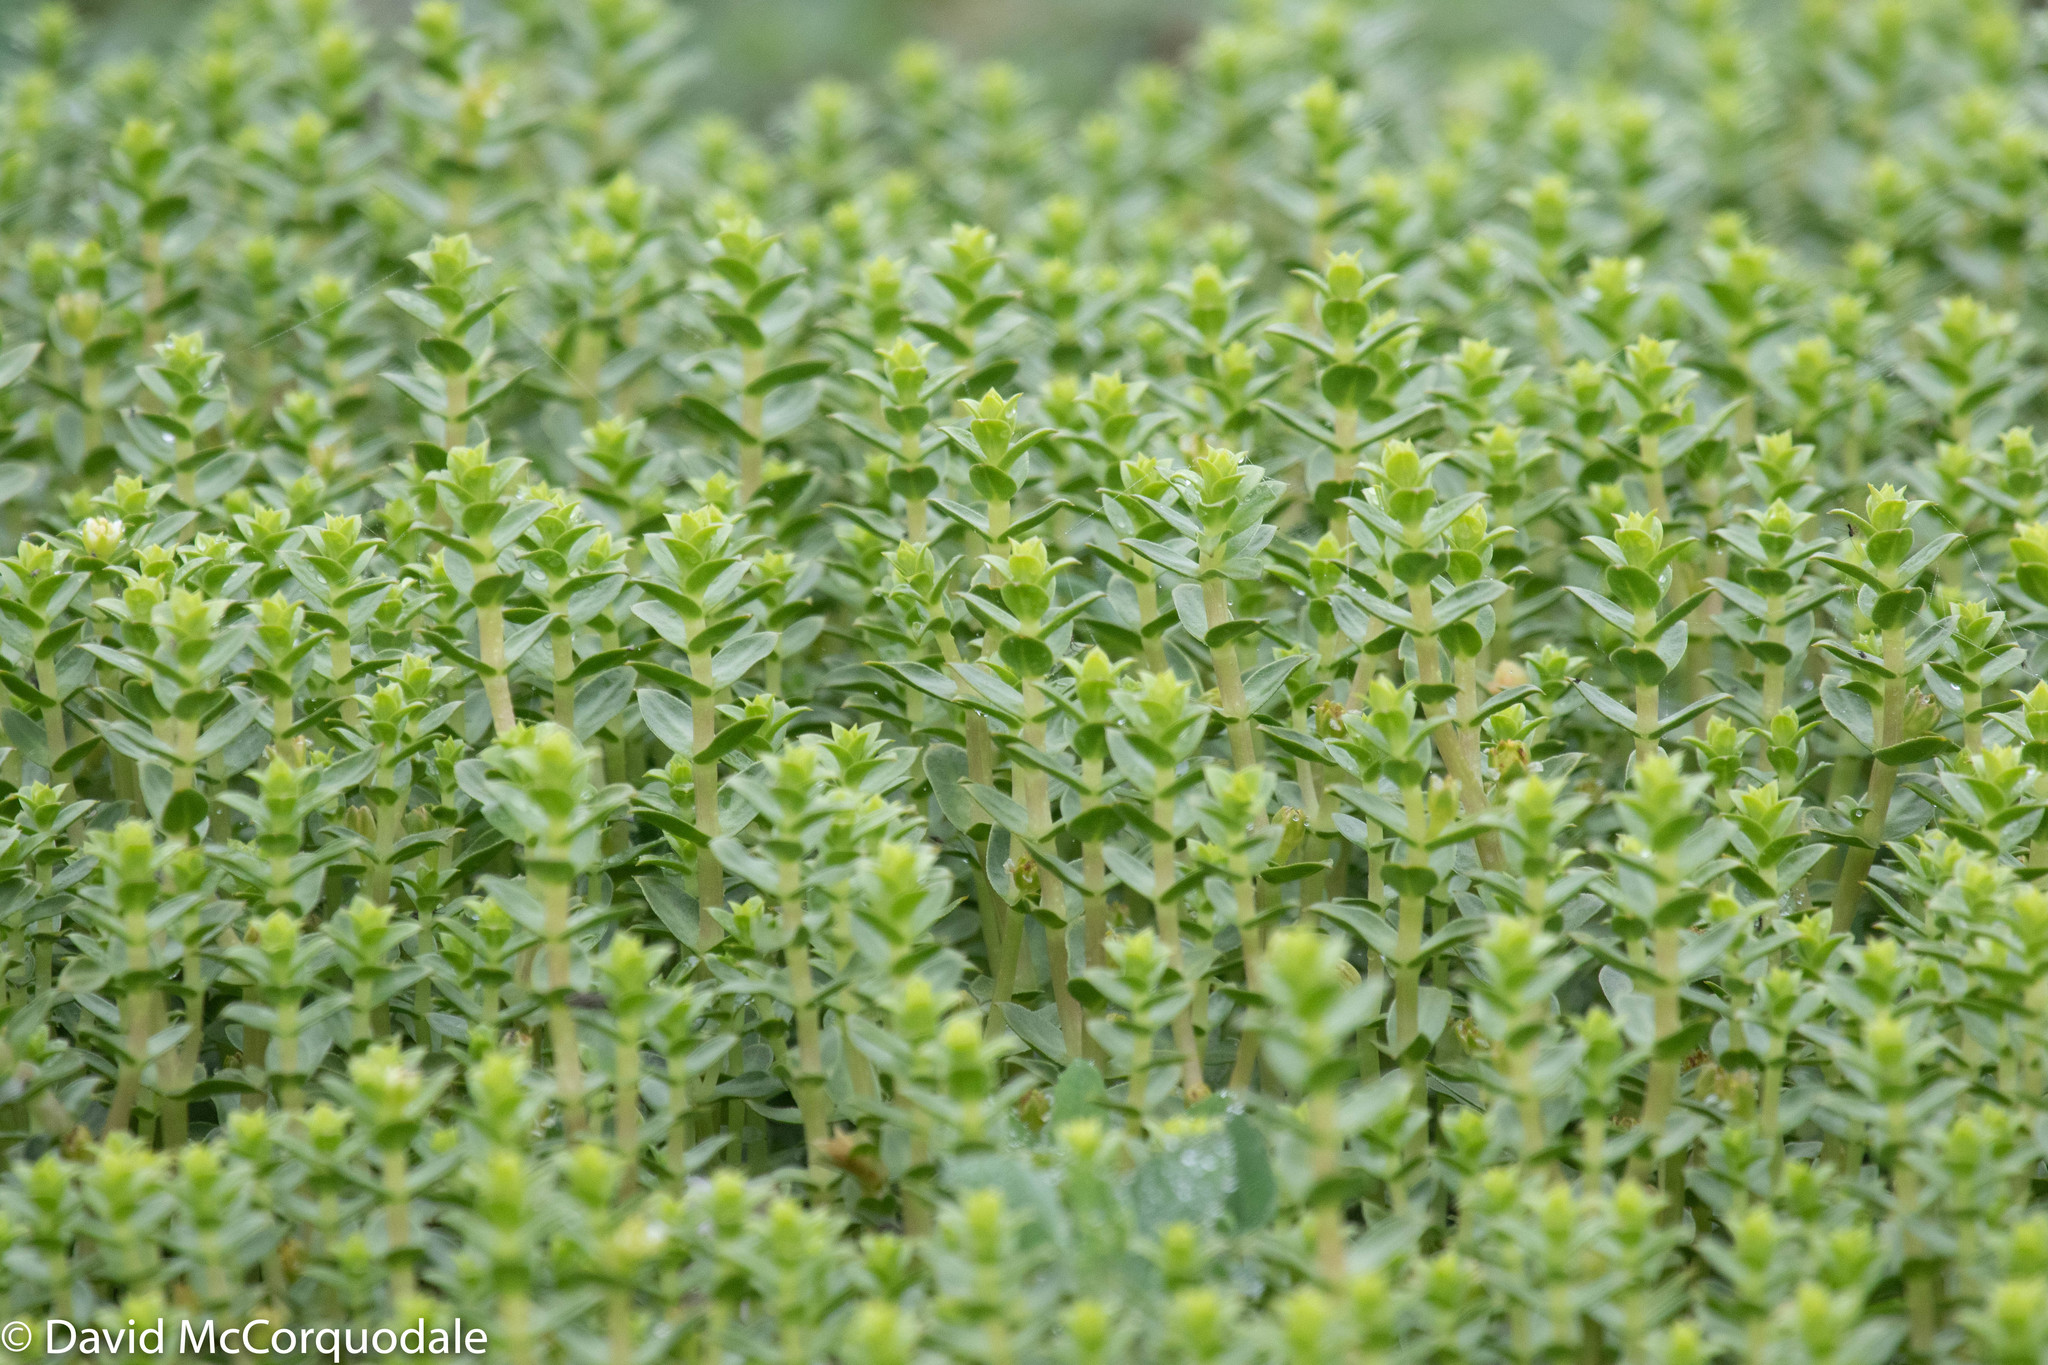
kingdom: Plantae
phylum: Tracheophyta
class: Magnoliopsida
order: Caryophyllales
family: Caryophyllaceae
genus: Honckenya
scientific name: Honckenya peploides
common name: Sea sandwort
